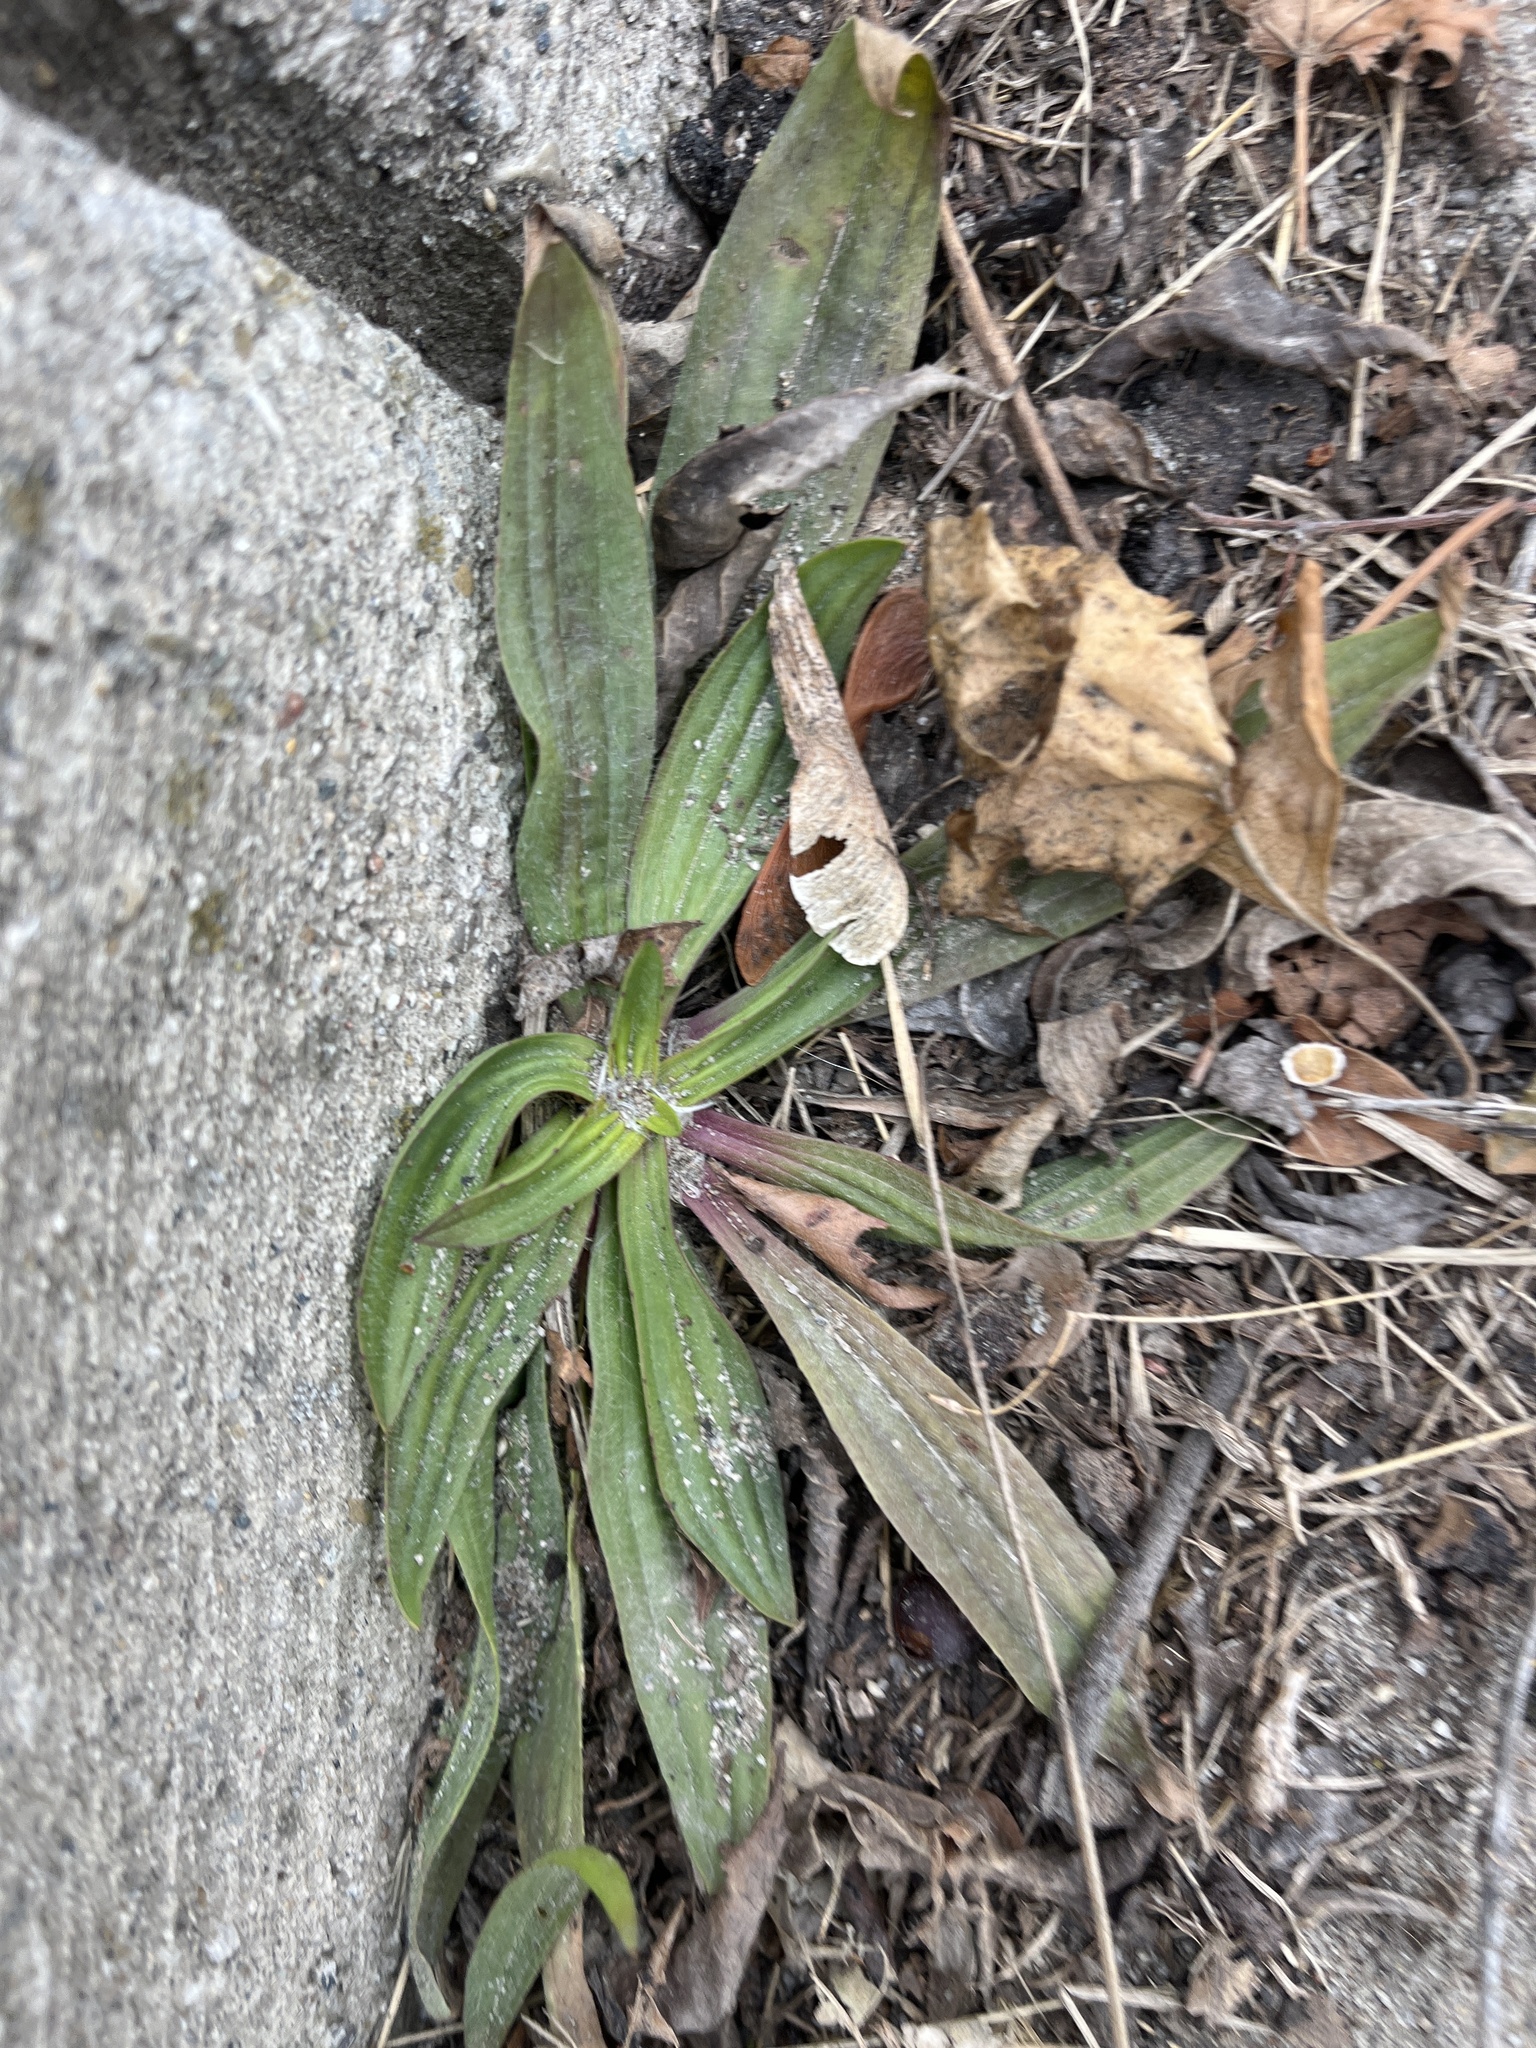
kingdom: Plantae
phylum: Tracheophyta
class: Magnoliopsida
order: Lamiales
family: Plantaginaceae
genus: Plantago
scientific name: Plantago lanceolata
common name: Ribwort plantain
